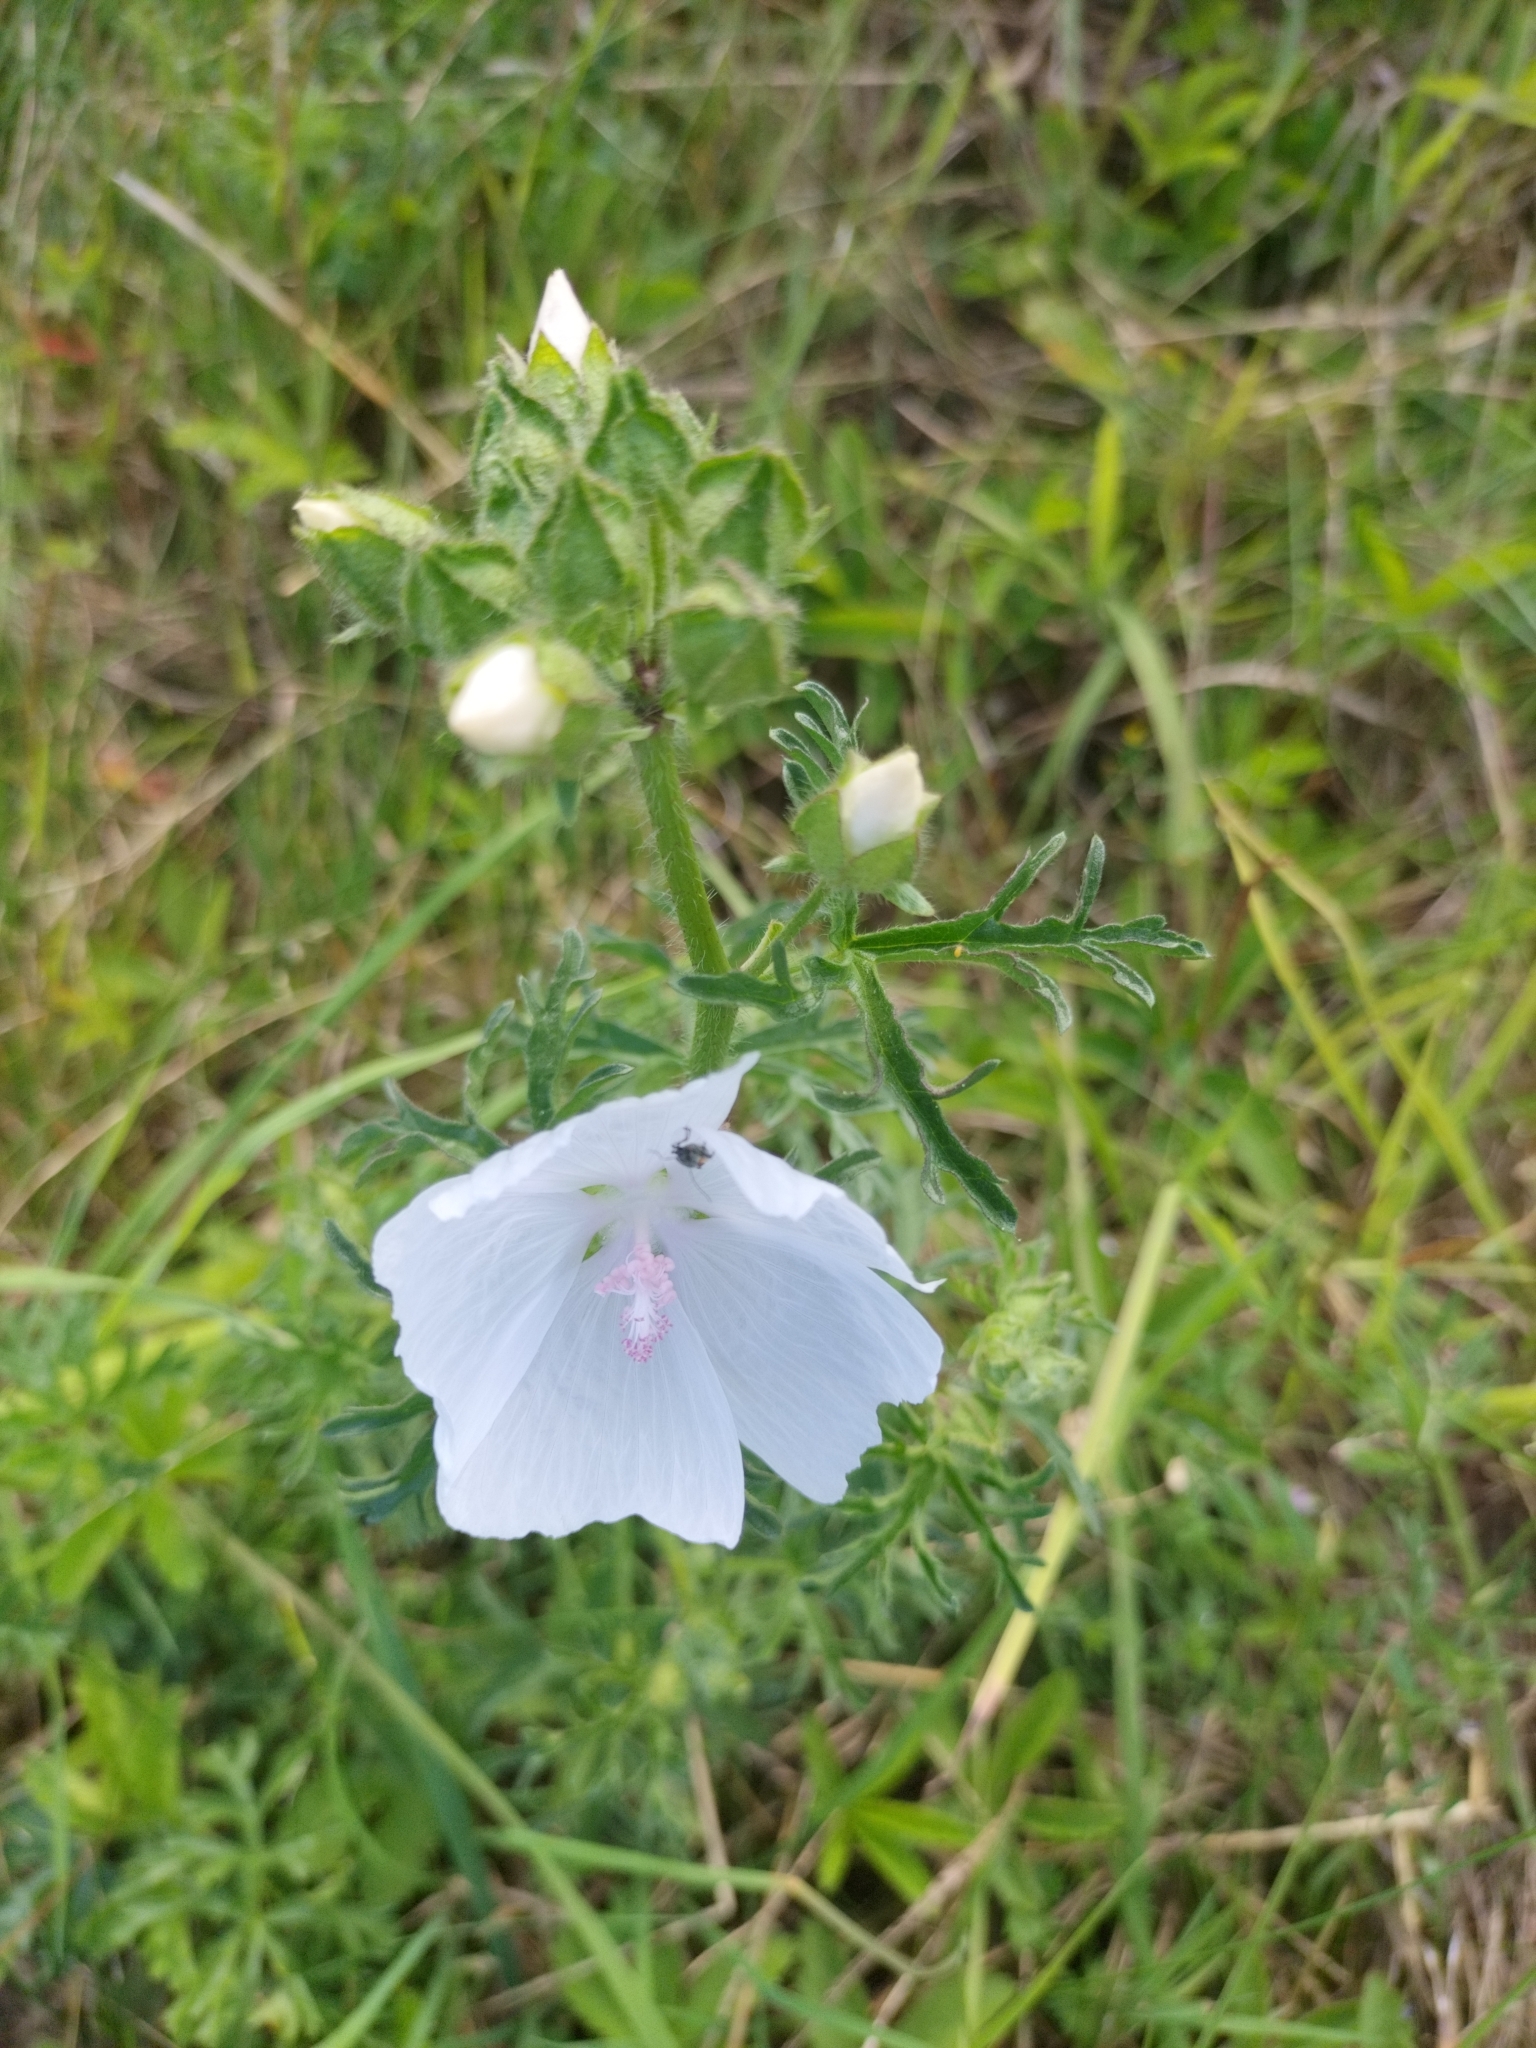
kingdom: Plantae
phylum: Tracheophyta
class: Magnoliopsida
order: Malvales
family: Malvaceae
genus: Malva
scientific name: Malva moschata
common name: Musk mallow
